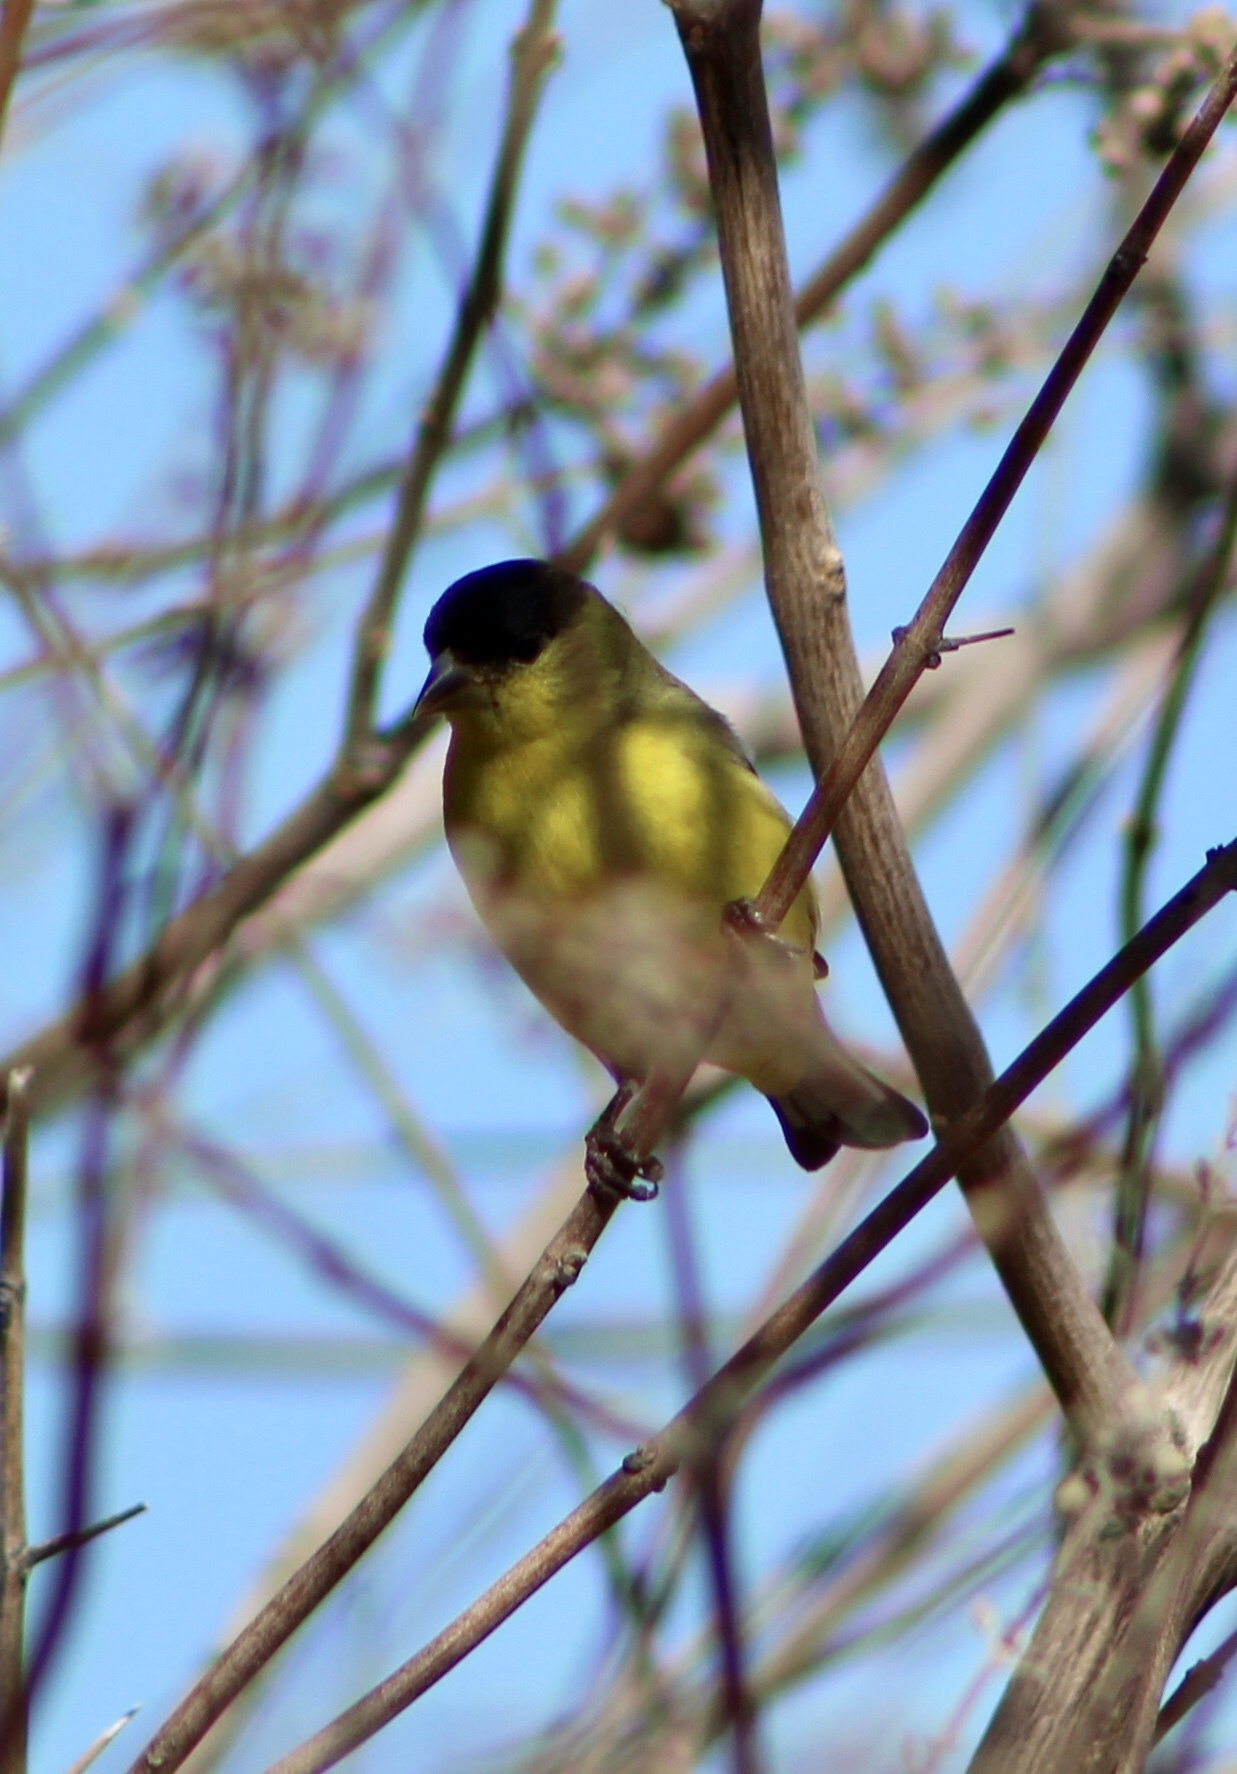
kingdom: Animalia
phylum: Chordata
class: Aves
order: Passeriformes
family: Fringillidae
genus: Spinus
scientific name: Spinus psaltria
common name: Lesser goldfinch
